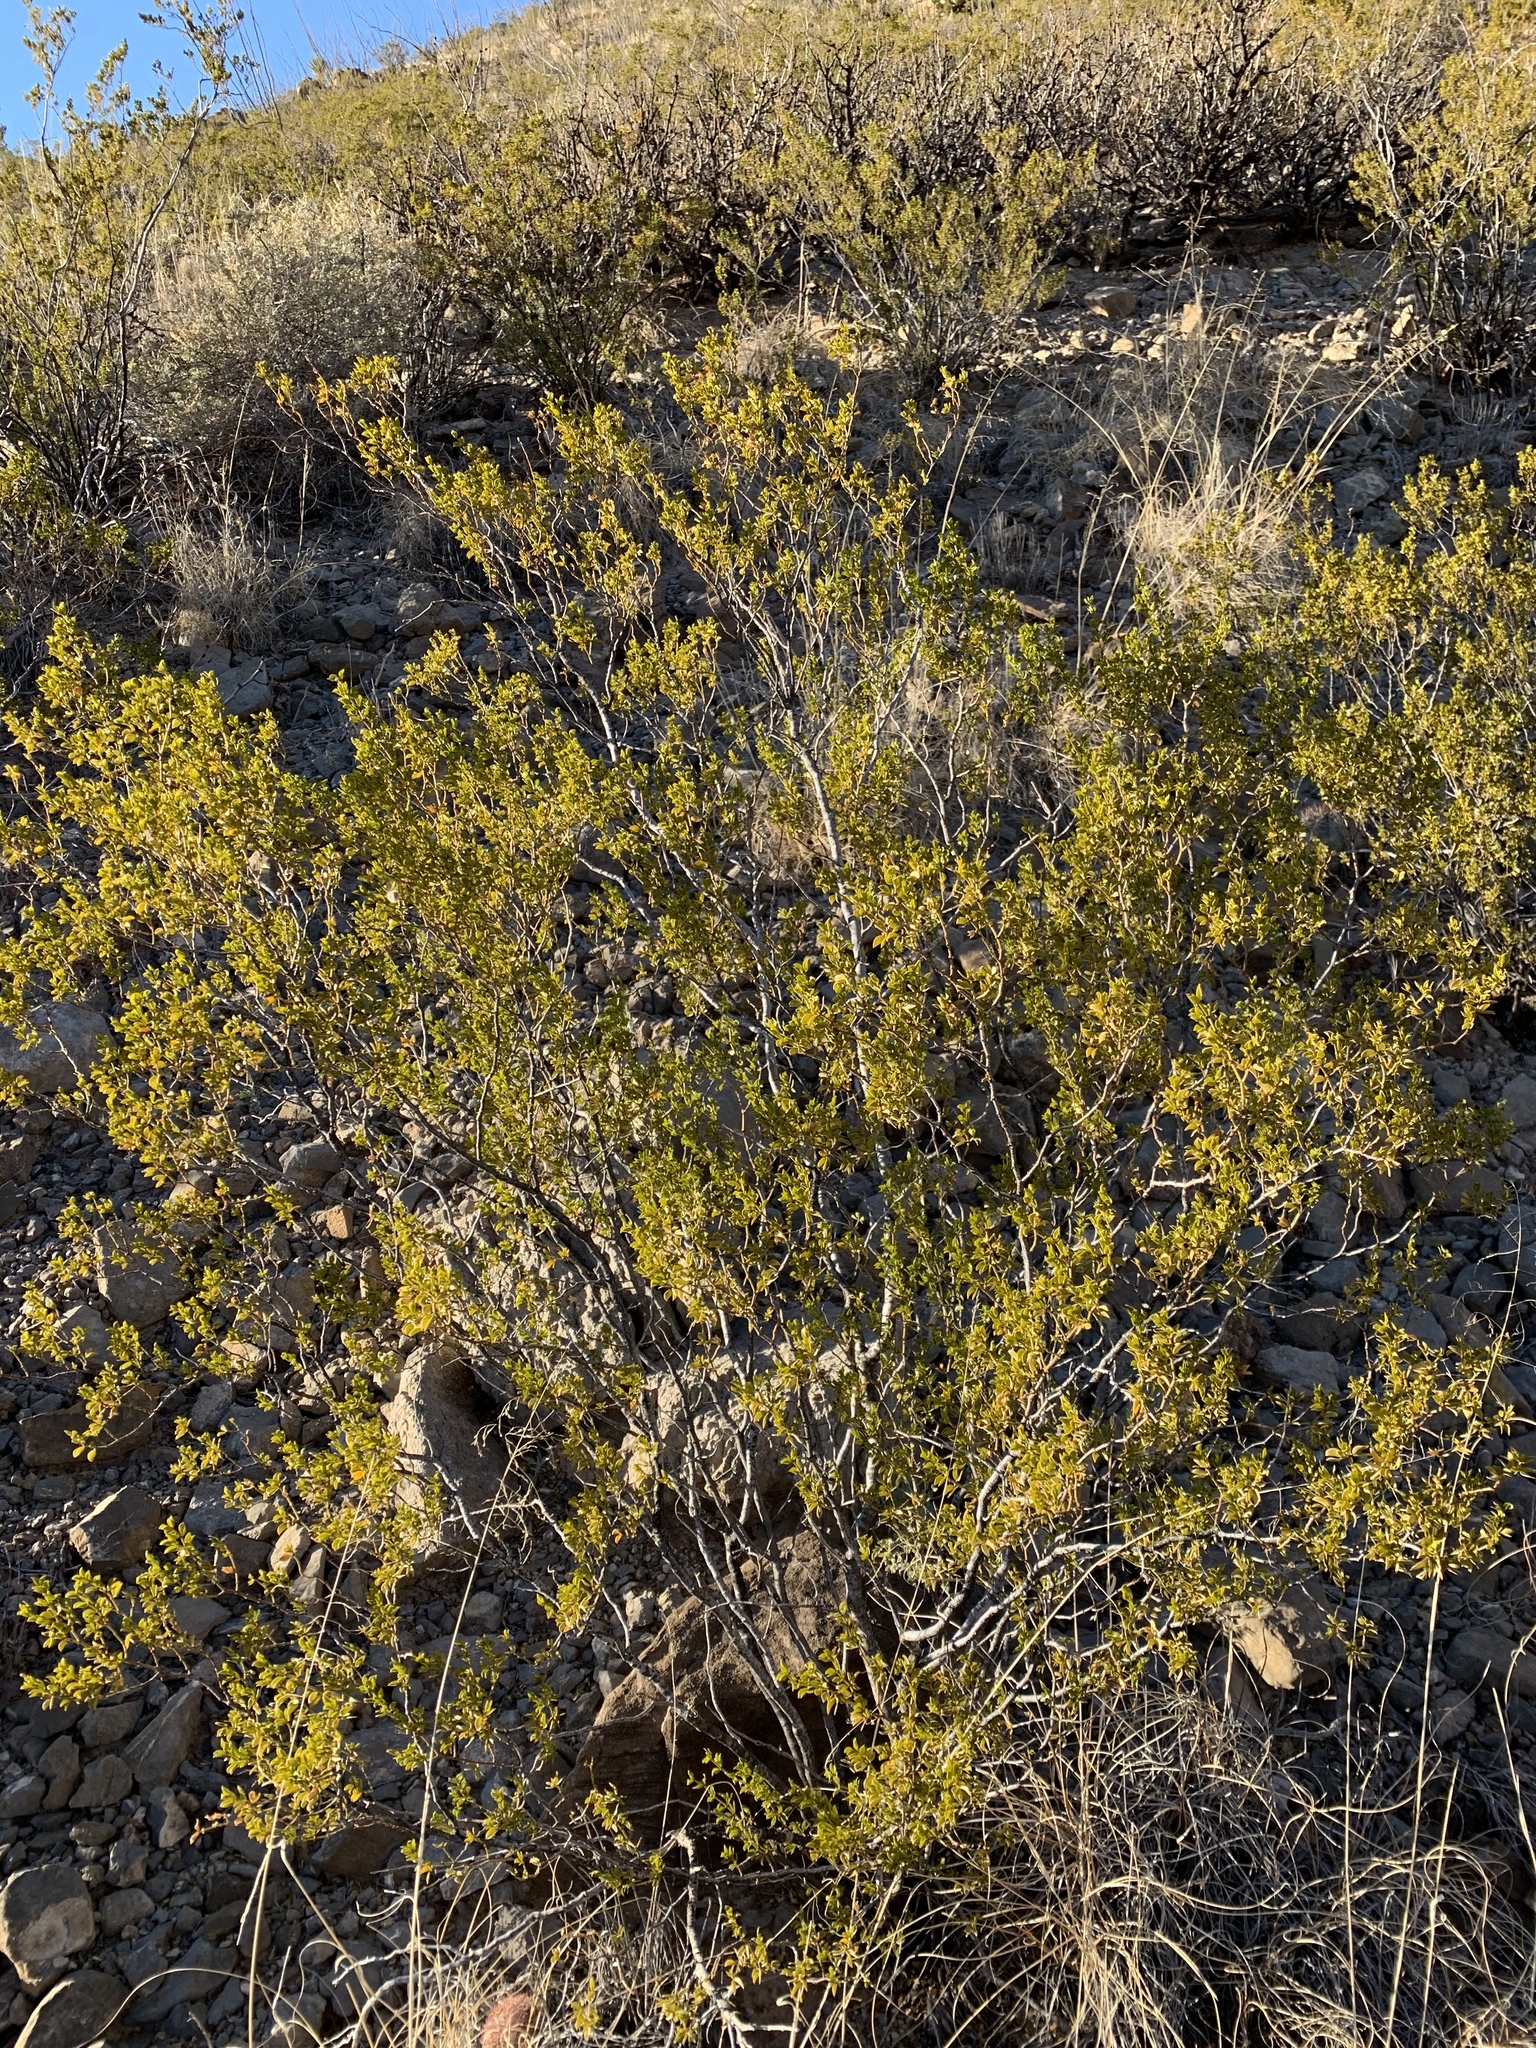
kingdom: Plantae
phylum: Tracheophyta
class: Magnoliopsida
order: Zygophyllales
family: Zygophyllaceae
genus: Larrea
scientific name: Larrea tridentata
